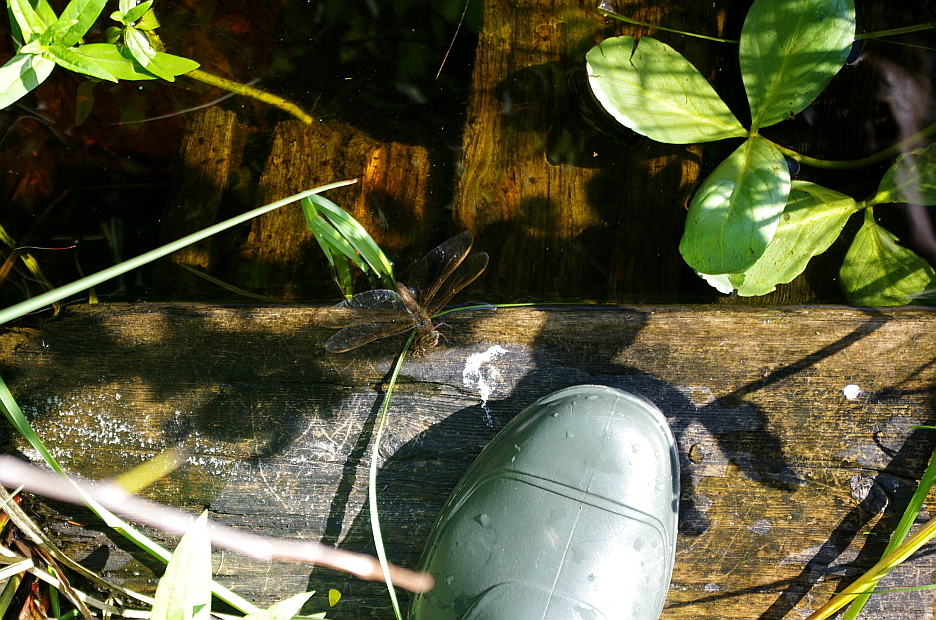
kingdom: Plantae
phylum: Tracheophyta
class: Magnoliopsida
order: Asterales
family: Menyanthaceae
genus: Menyanthes
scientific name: Menyanthes trifoliata
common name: Bogbean
